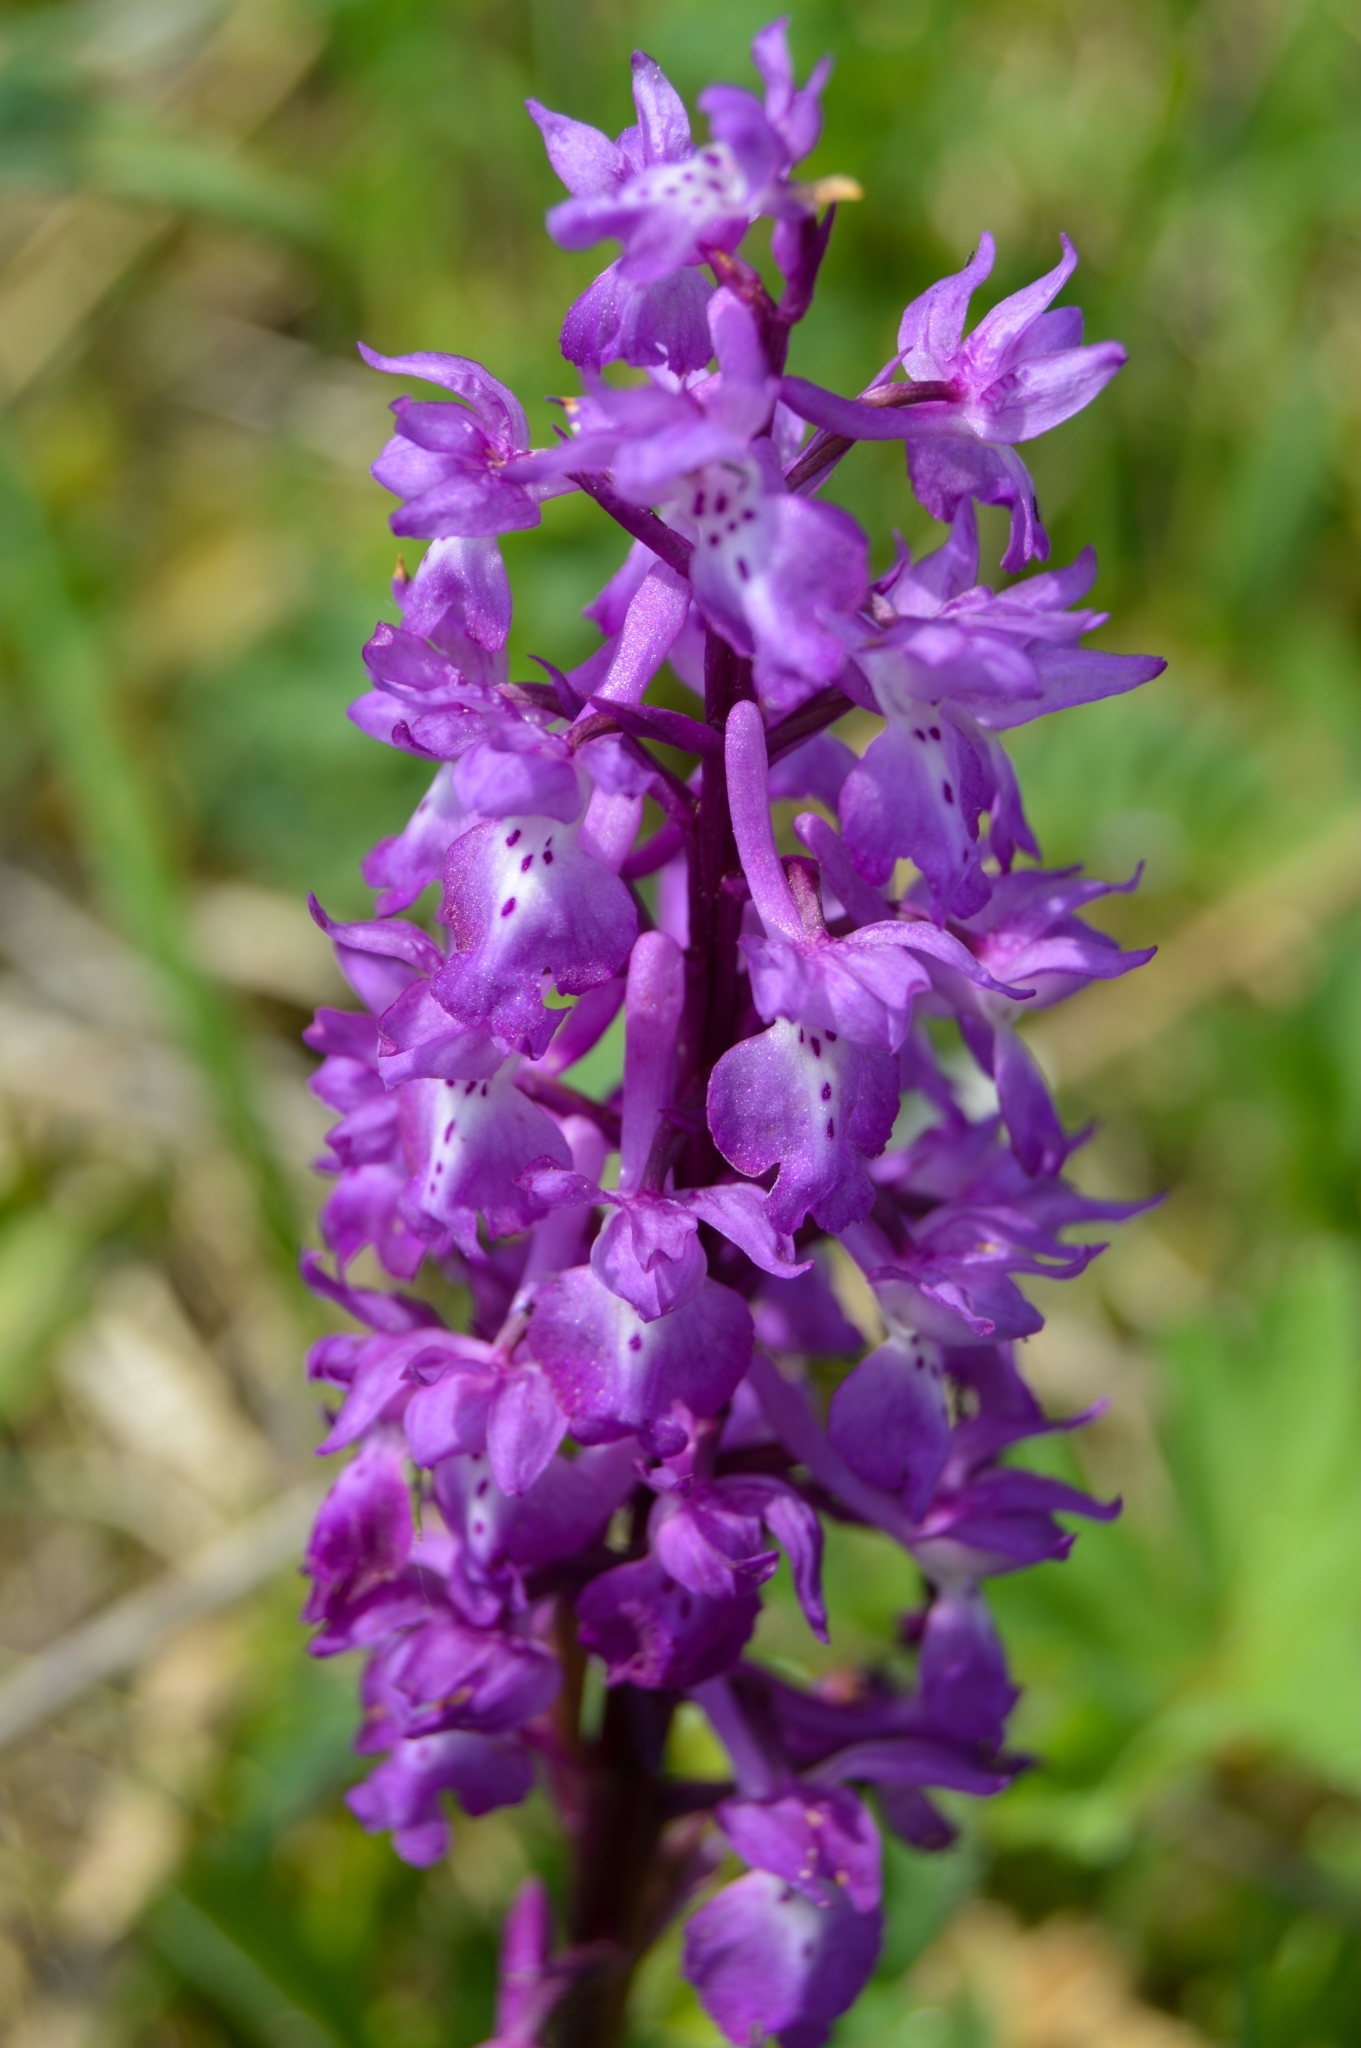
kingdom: Plantae
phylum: Tracheophyta
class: Liliopsida
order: Asparagales
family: Orchidaceae
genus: Orchis
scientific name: Orchis mascula
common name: Early-purple orchid
